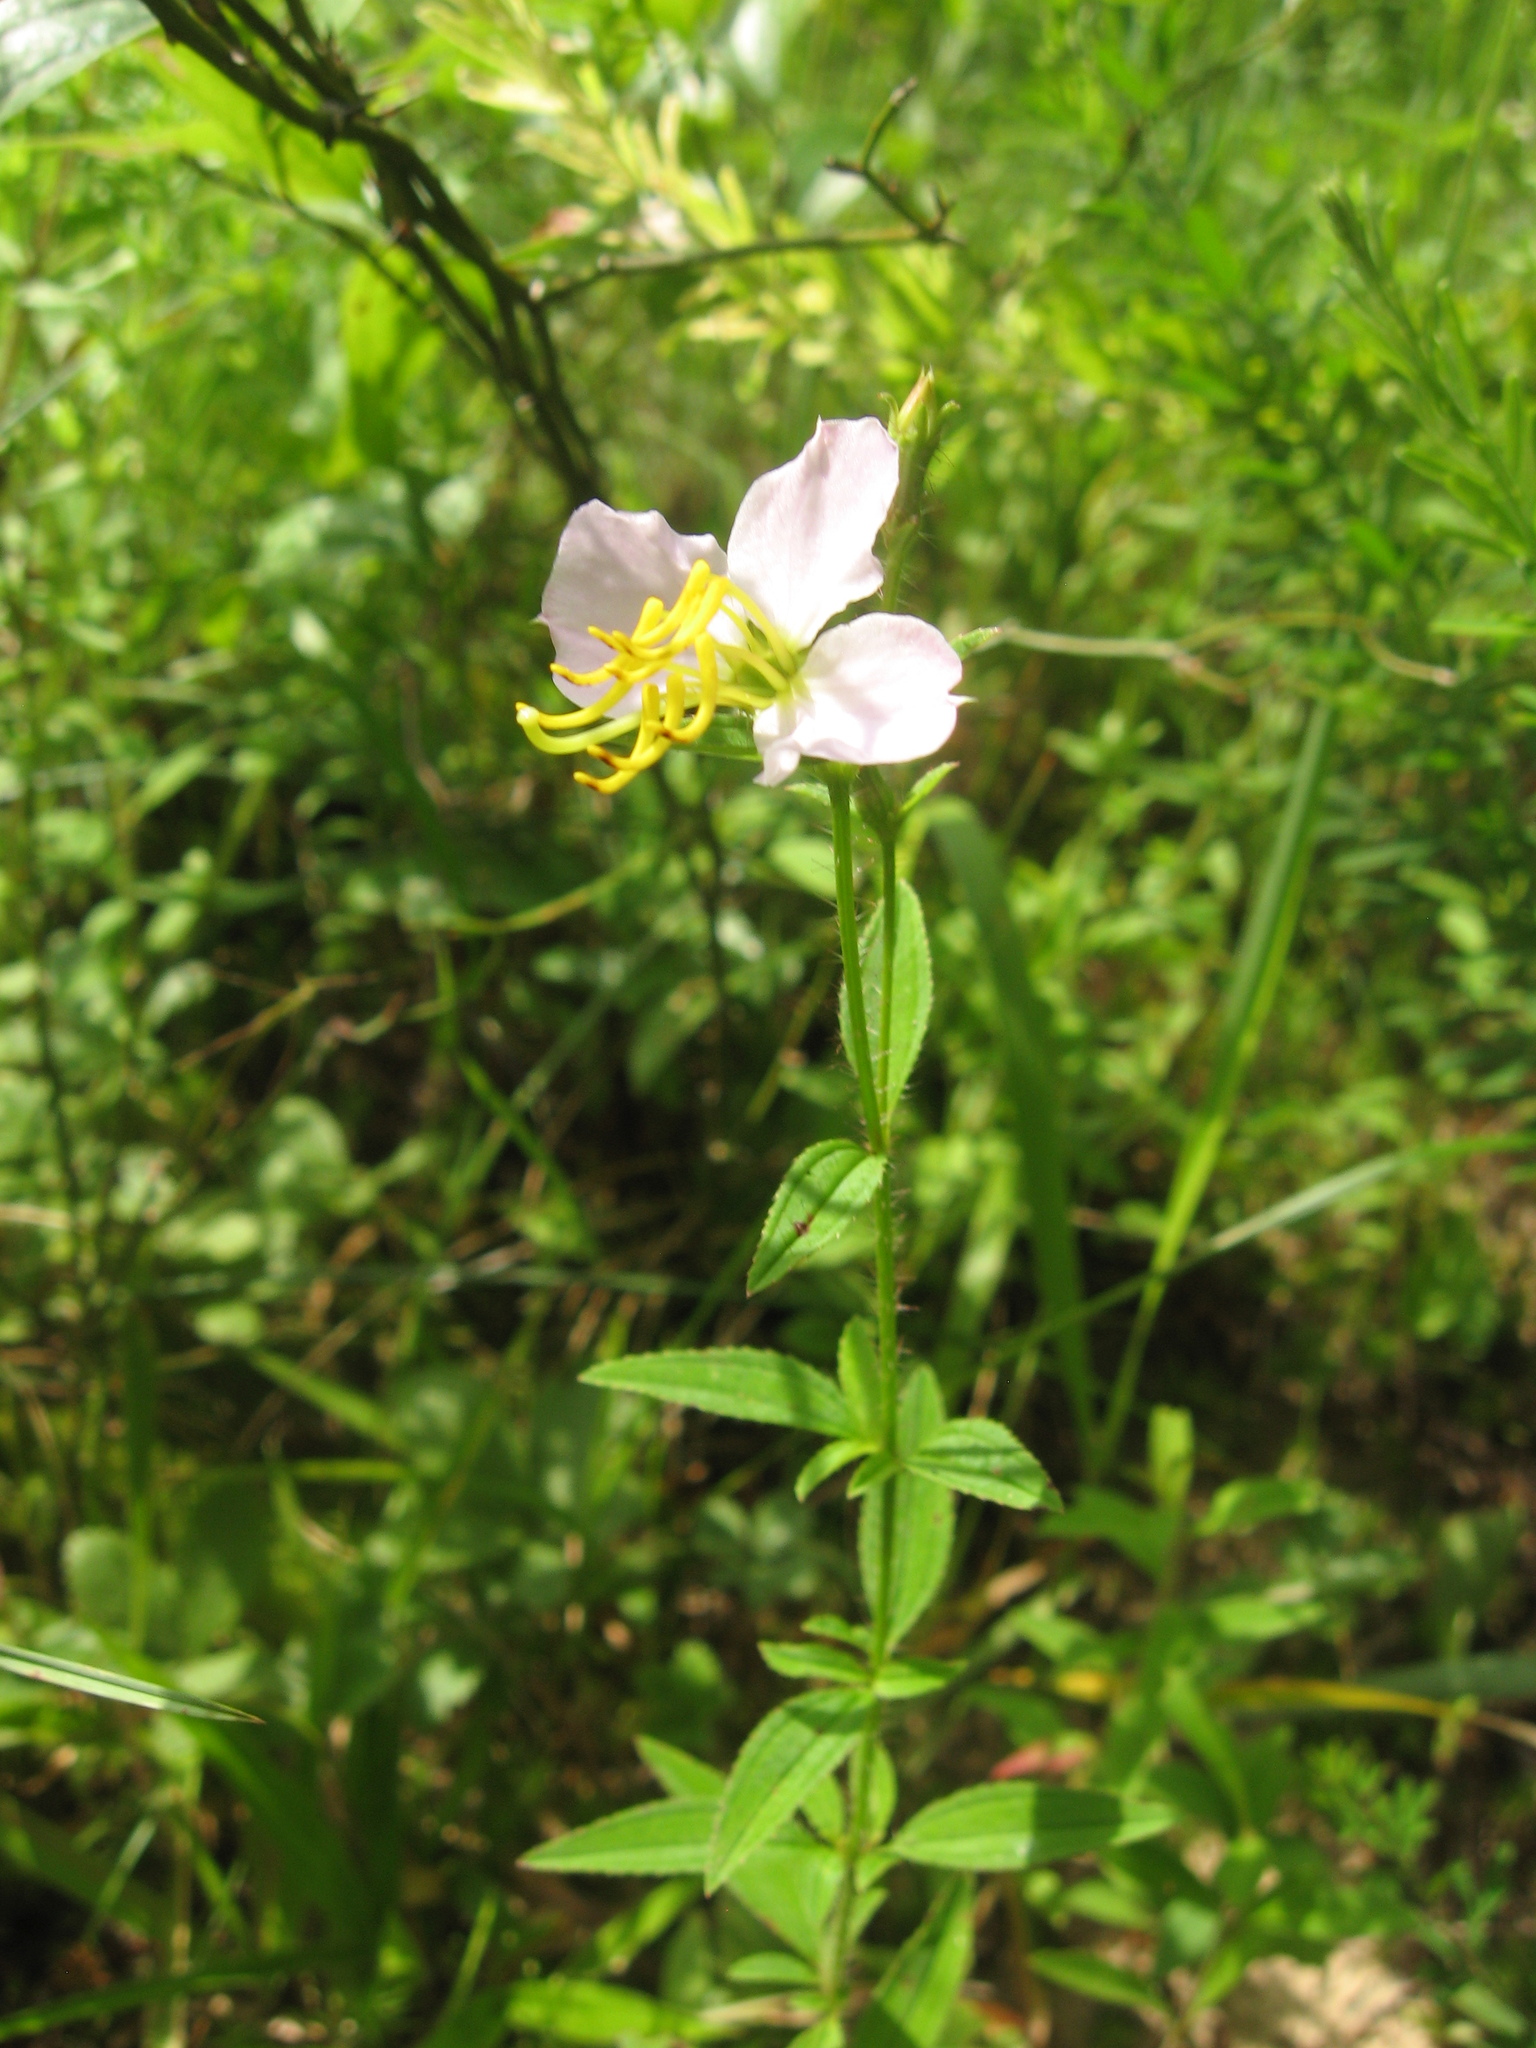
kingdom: Plantae
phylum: Tracheophyta
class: Magnoliopsida
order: Myrtales
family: Melastomataceae
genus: Rhexia
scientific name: Rhexia mariana
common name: Dull meadow-pitcher
